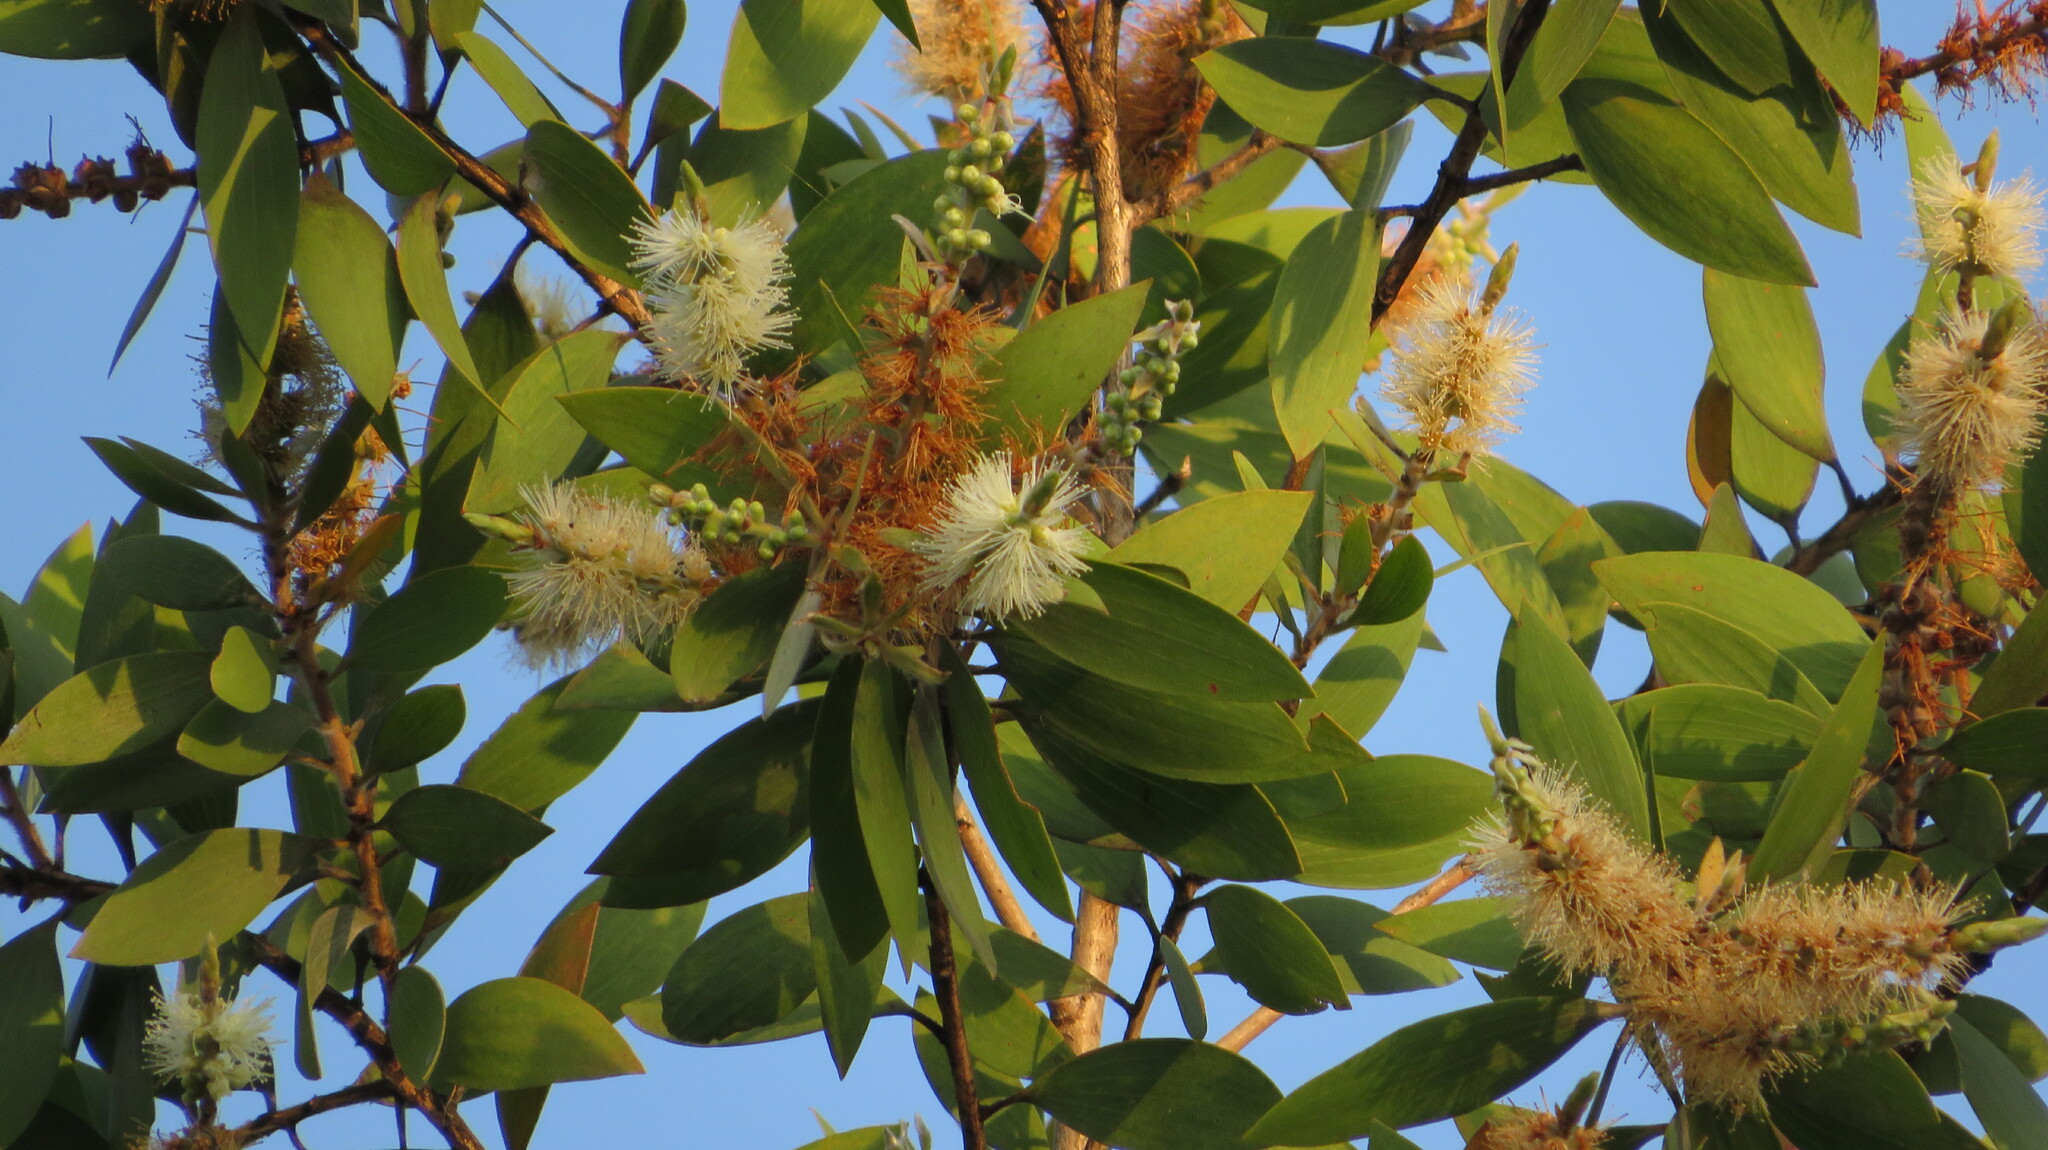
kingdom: Plantae
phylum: Tracheophyta
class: Magnoliopsida
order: Myrtales
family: Myrtaceae
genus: Melaleuca
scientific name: Melaleuca cajuputi
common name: Cajuput
